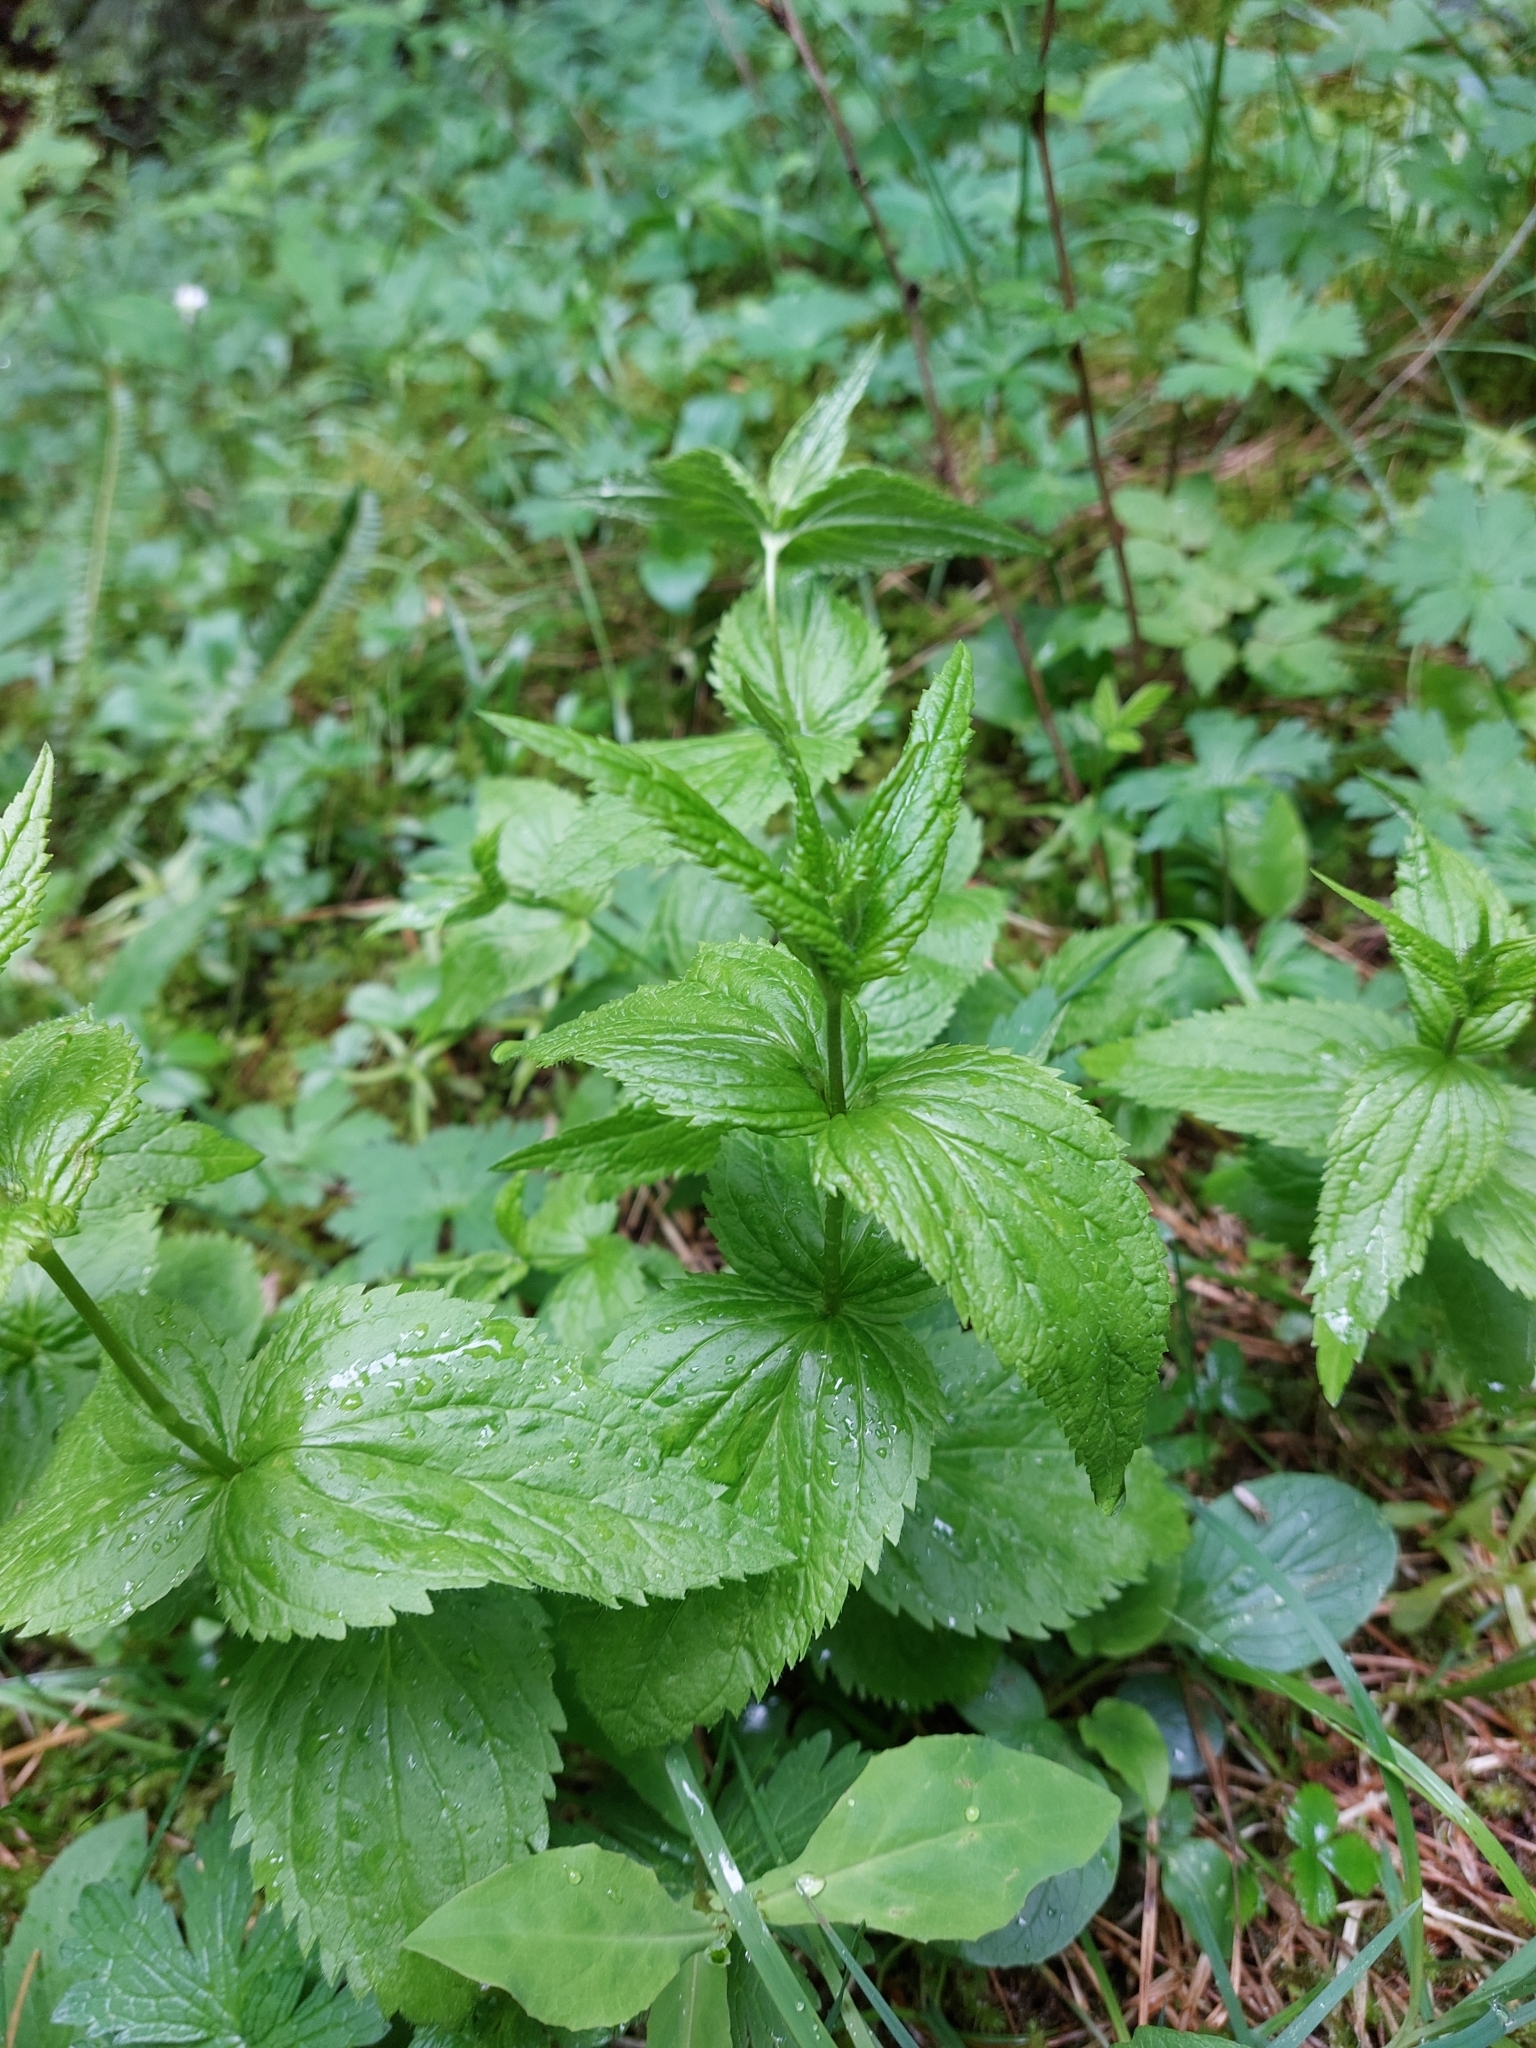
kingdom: Plantae
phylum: Tracheophyta
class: Magnoliopsida
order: Lamiales
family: Plantaginaceae
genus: Veronica
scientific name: Veronica urticifolia
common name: Nettle-leaf speedwell
